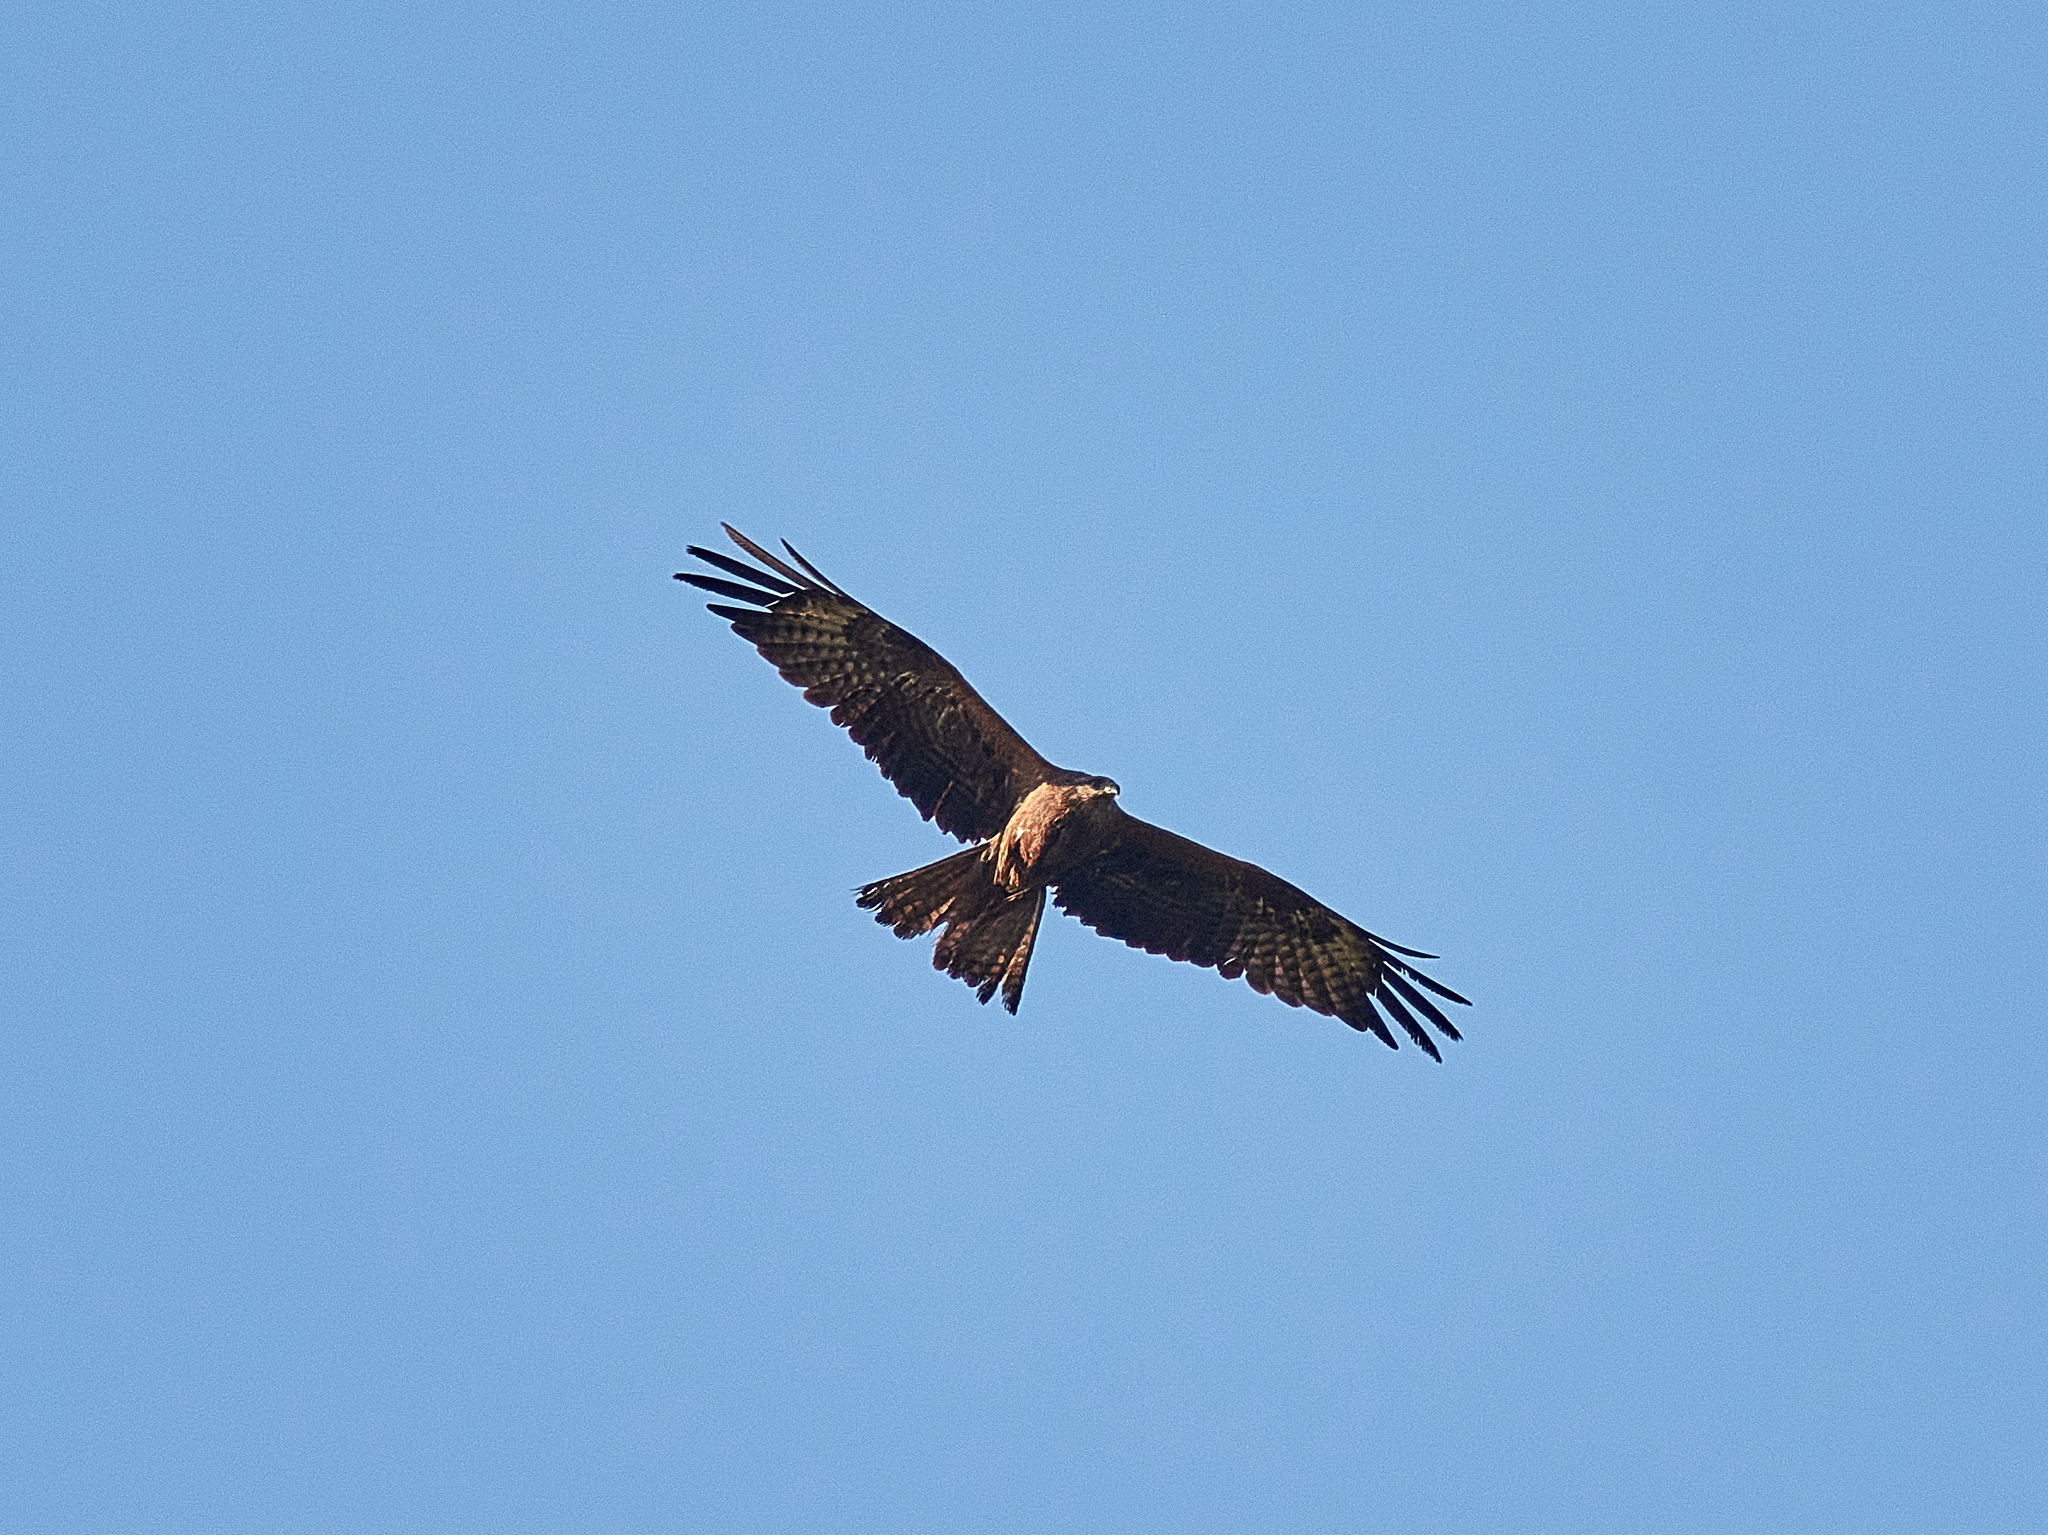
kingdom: Animalia
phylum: Chordata
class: Aves
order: Accipitriformes
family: Accipitridae
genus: Milvus
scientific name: Milvus migrans
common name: Black kite
